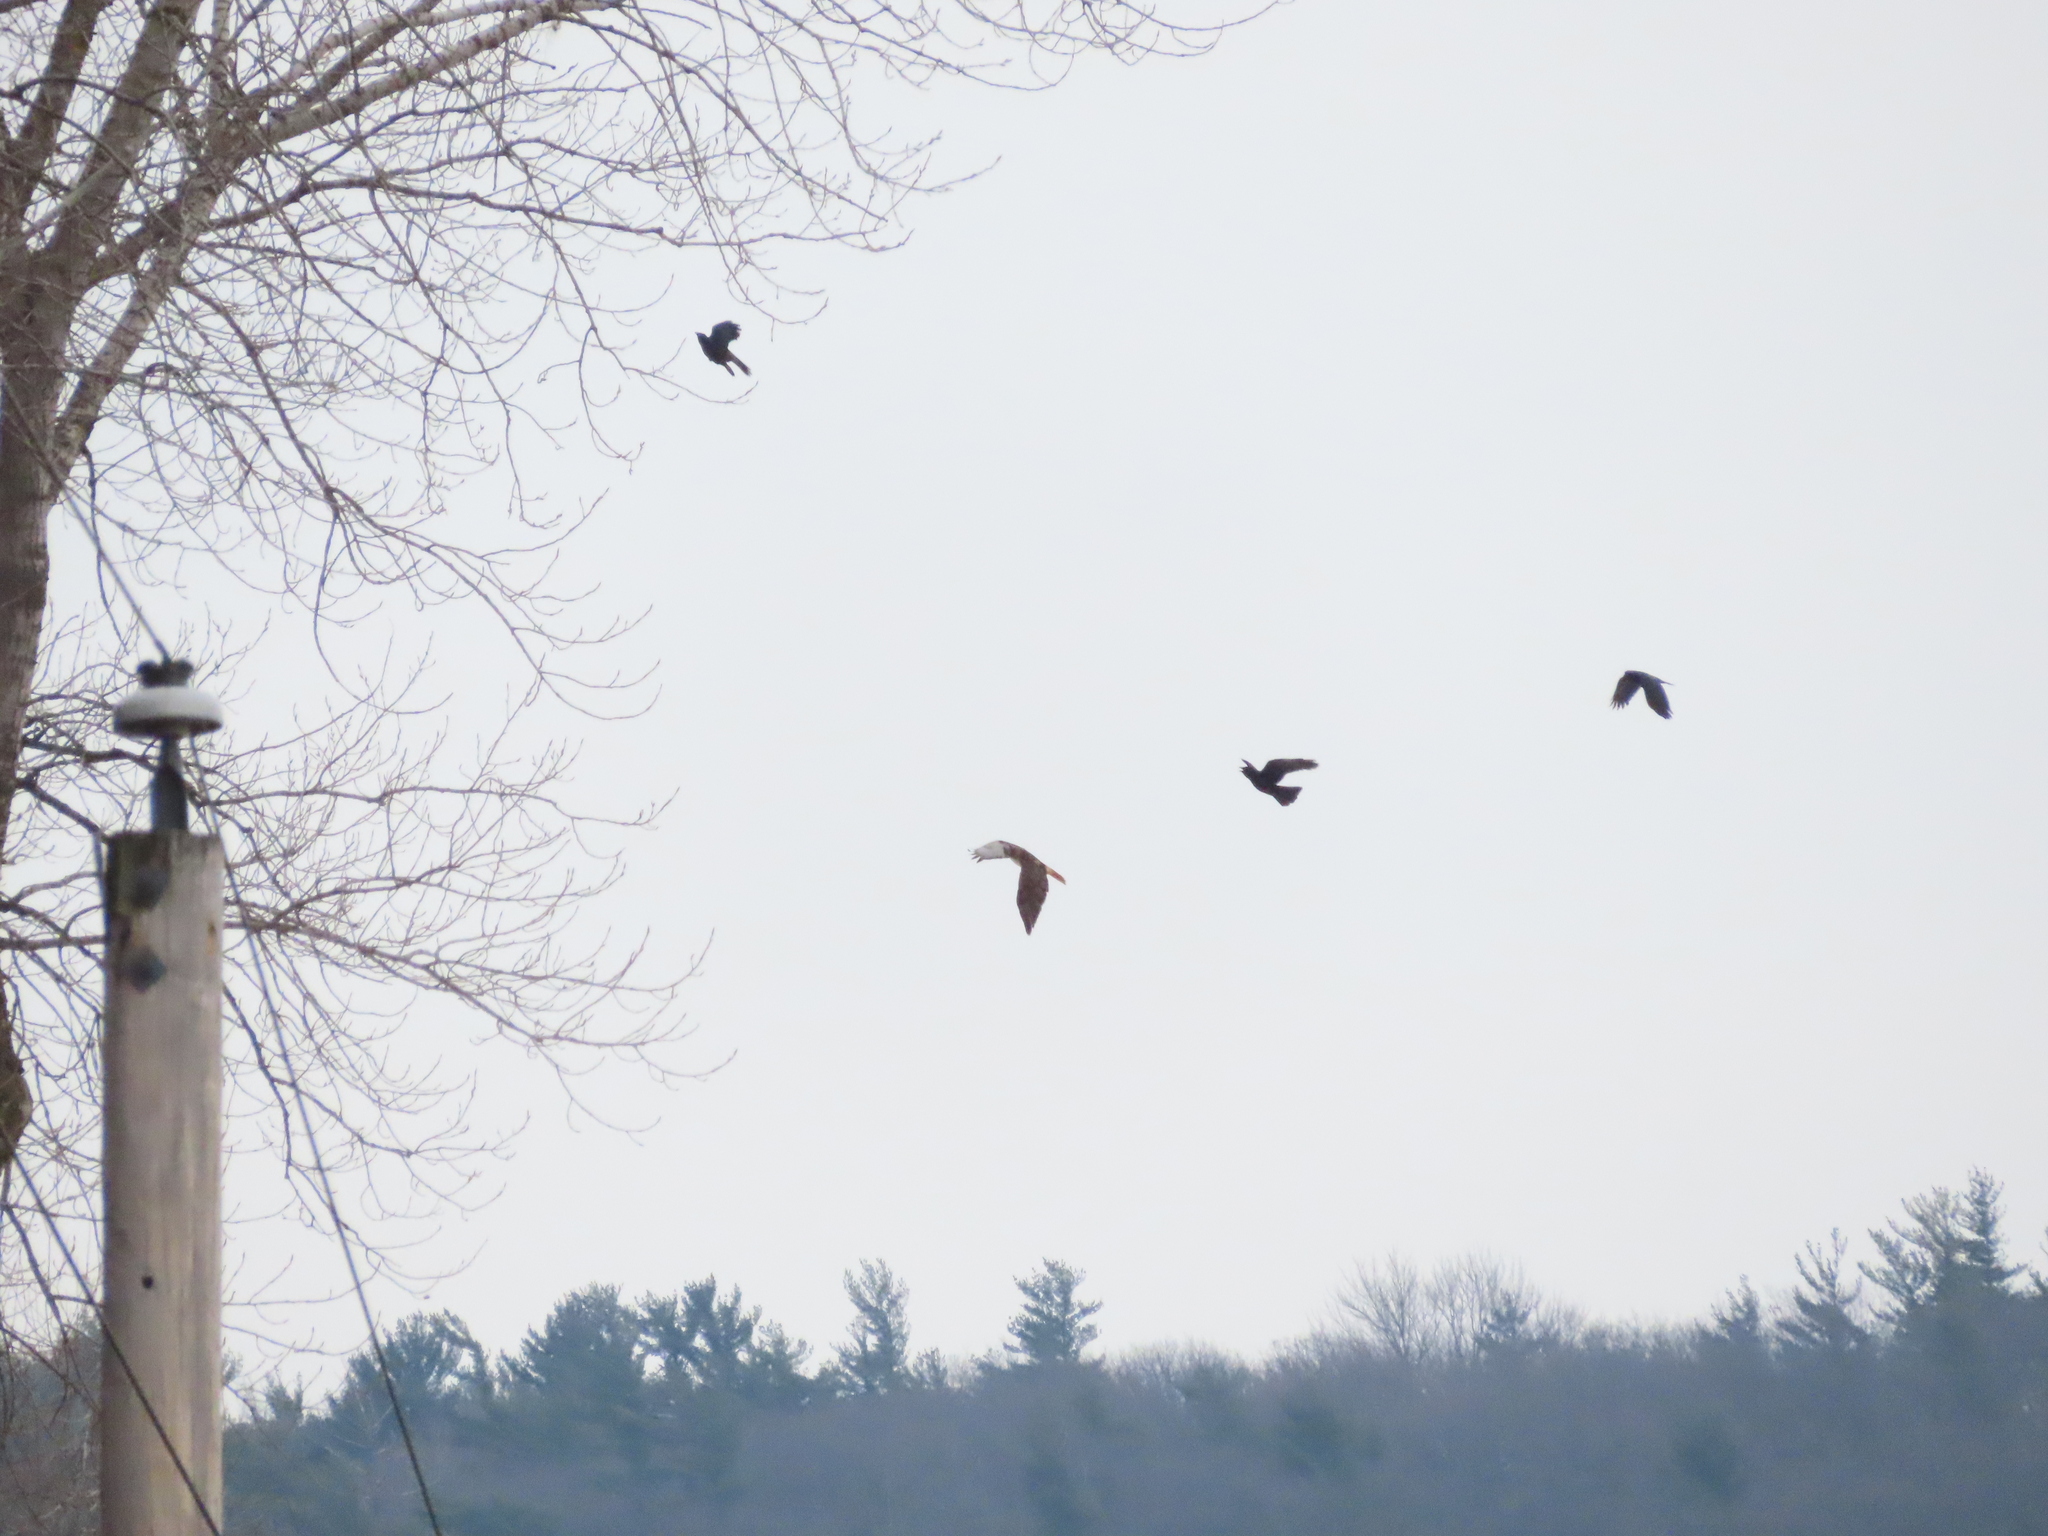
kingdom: Animalia
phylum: Chordata
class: Aves
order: Passeriformes
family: Corvidae
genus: Corvus
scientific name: Corvus brachyrhynchos
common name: American crow
